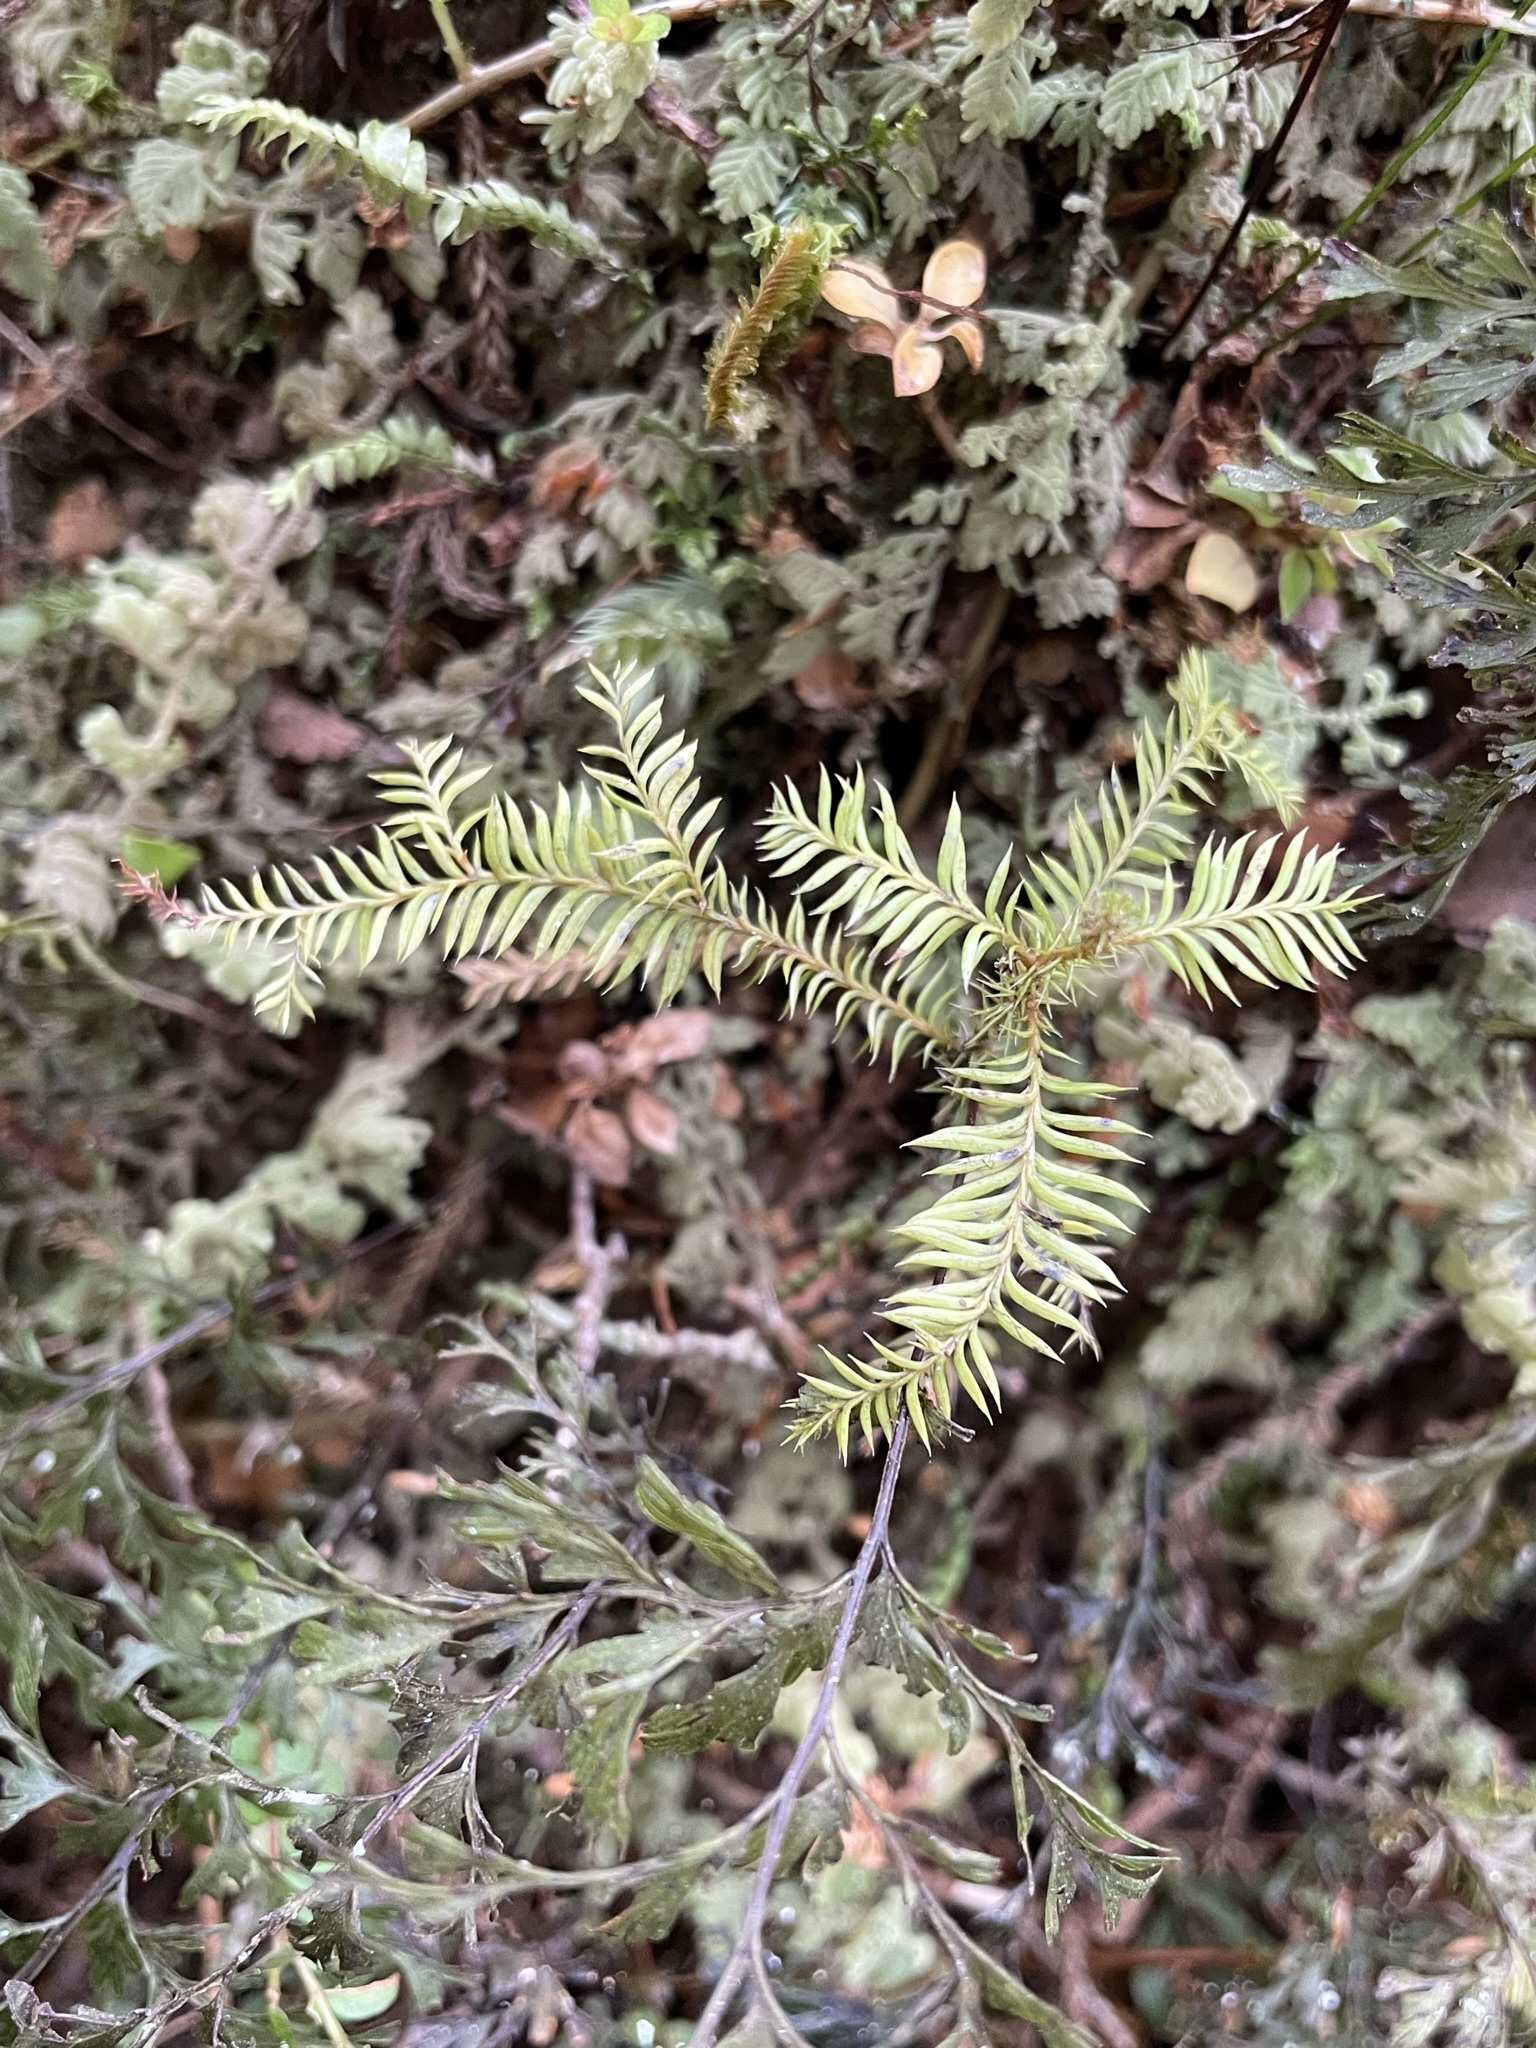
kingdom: Plantae
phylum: Tracheophyta
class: Pinopsida
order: Pinales
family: Podocarpaceae
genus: Dacrycarpus
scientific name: Dacrycarpus dacrydioides
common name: White pine
